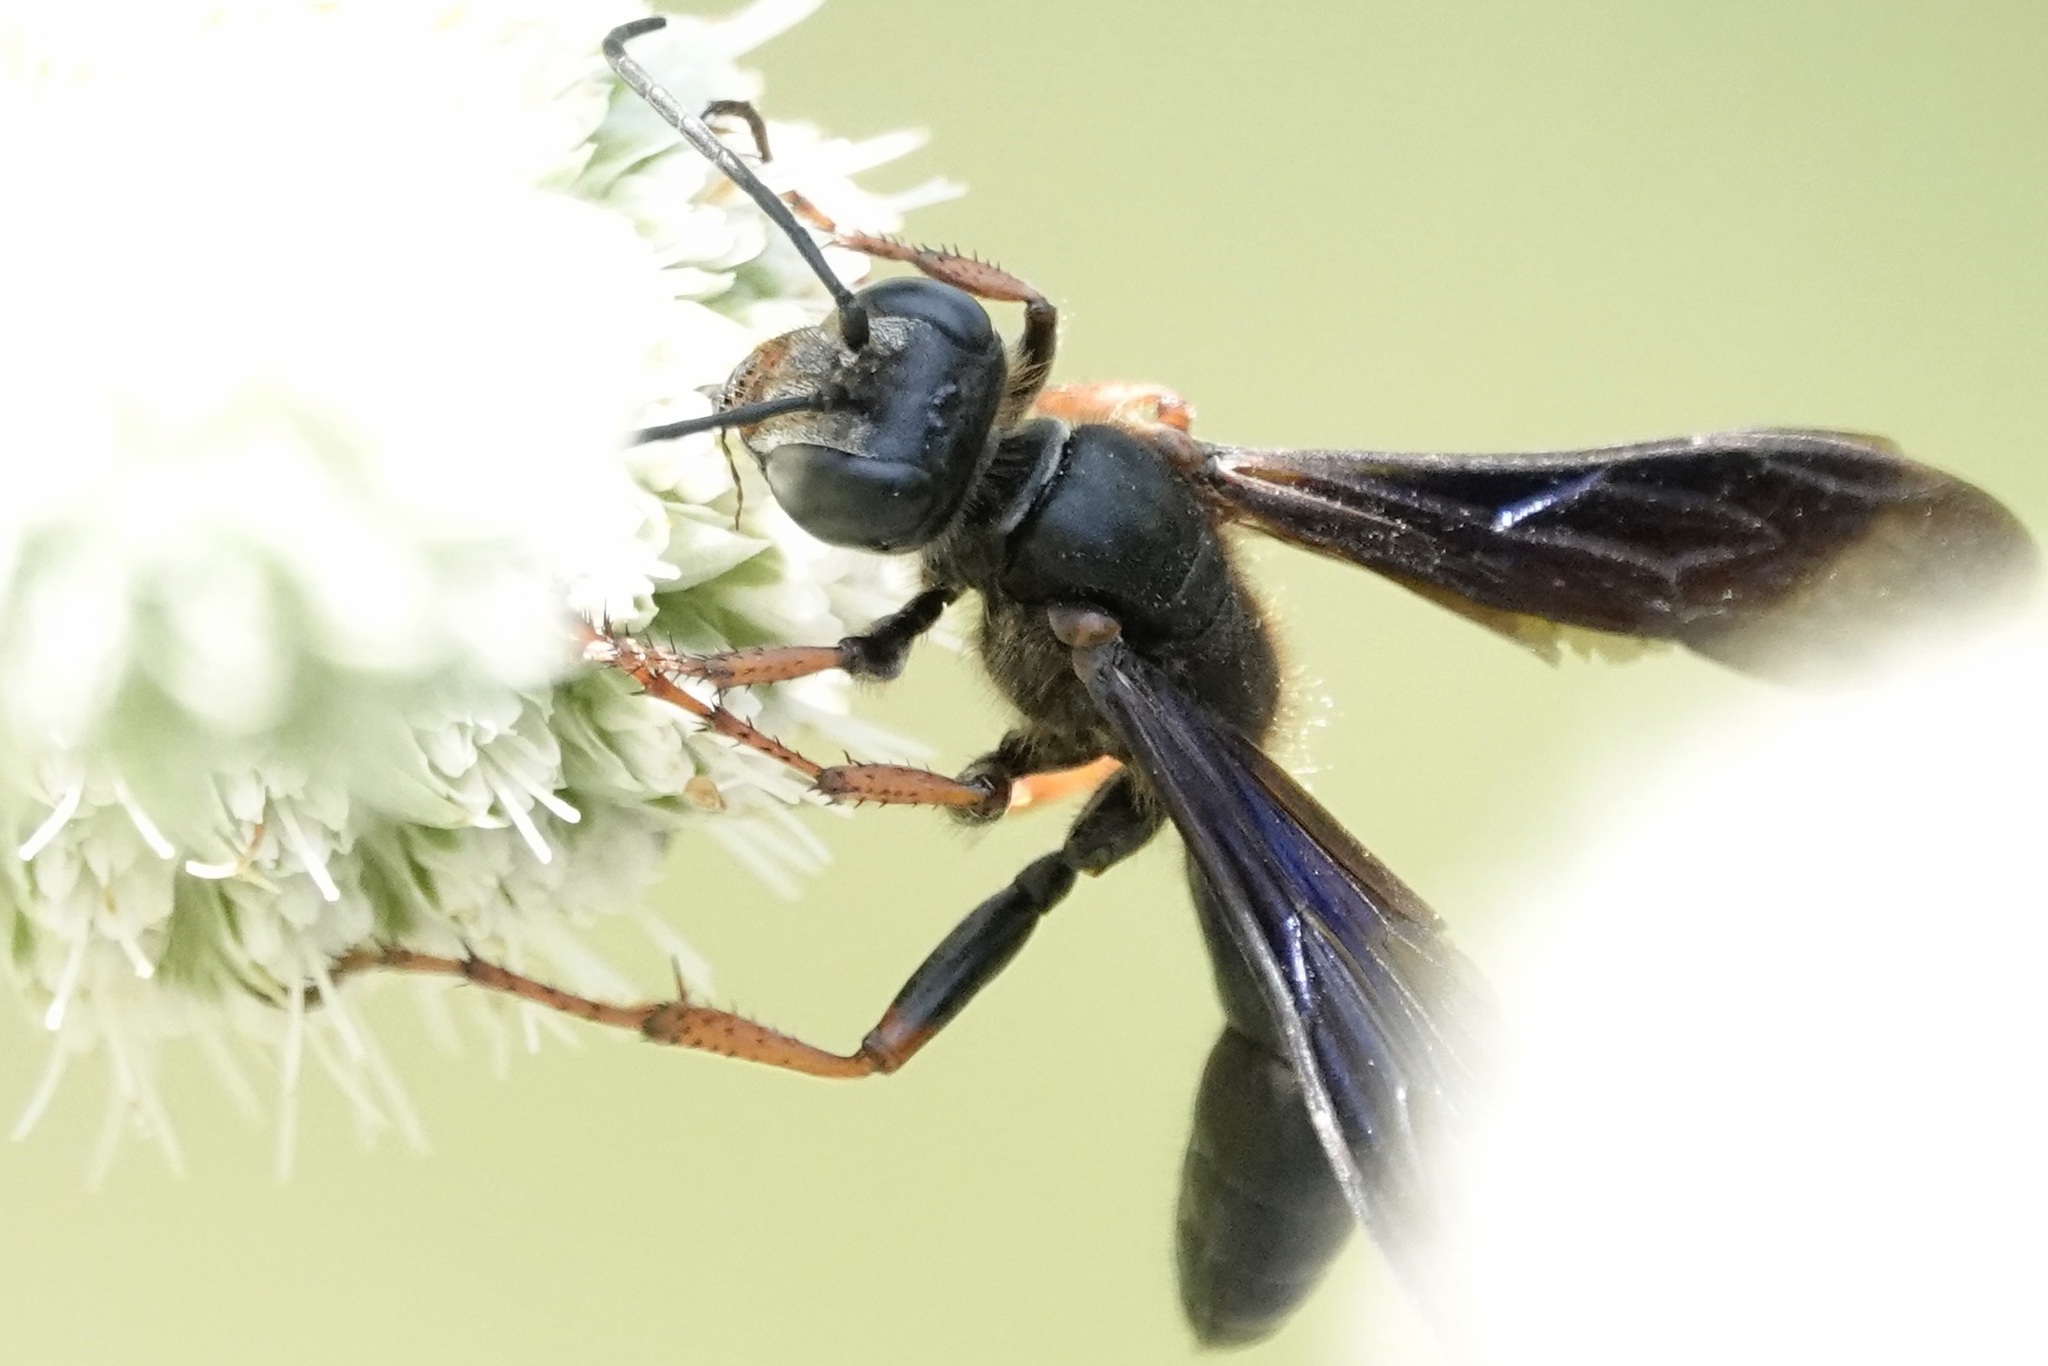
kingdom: Animalia
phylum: Arthropoda
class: Insecta
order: Hymenoptera
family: Sphecidae
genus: Isodontia
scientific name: Isodontia auripes
